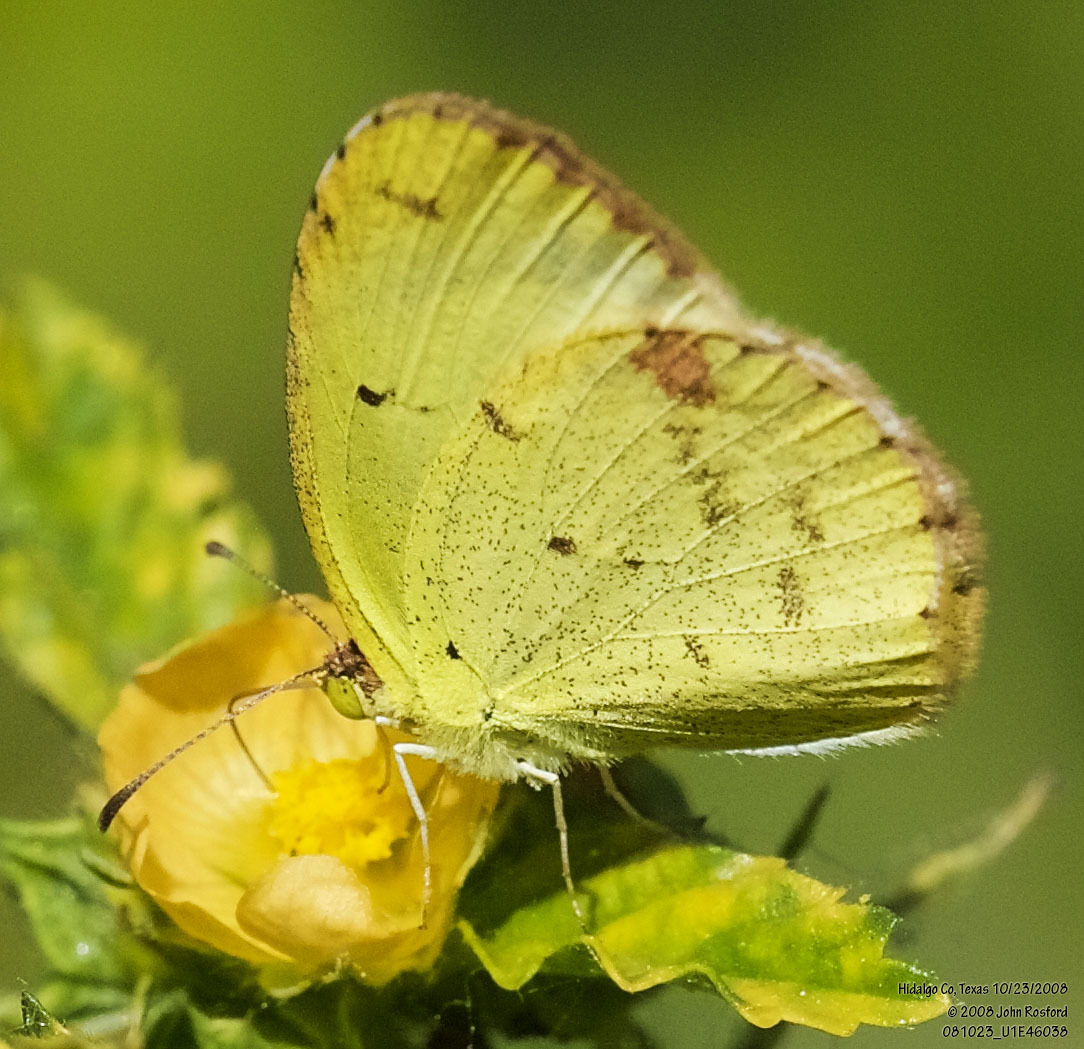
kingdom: Animalia
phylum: Arthropoda
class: Insecta
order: Lepidoptera
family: Pieridae
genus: Pyrisitia
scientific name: Pyrisitia lisa
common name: Little yellow
